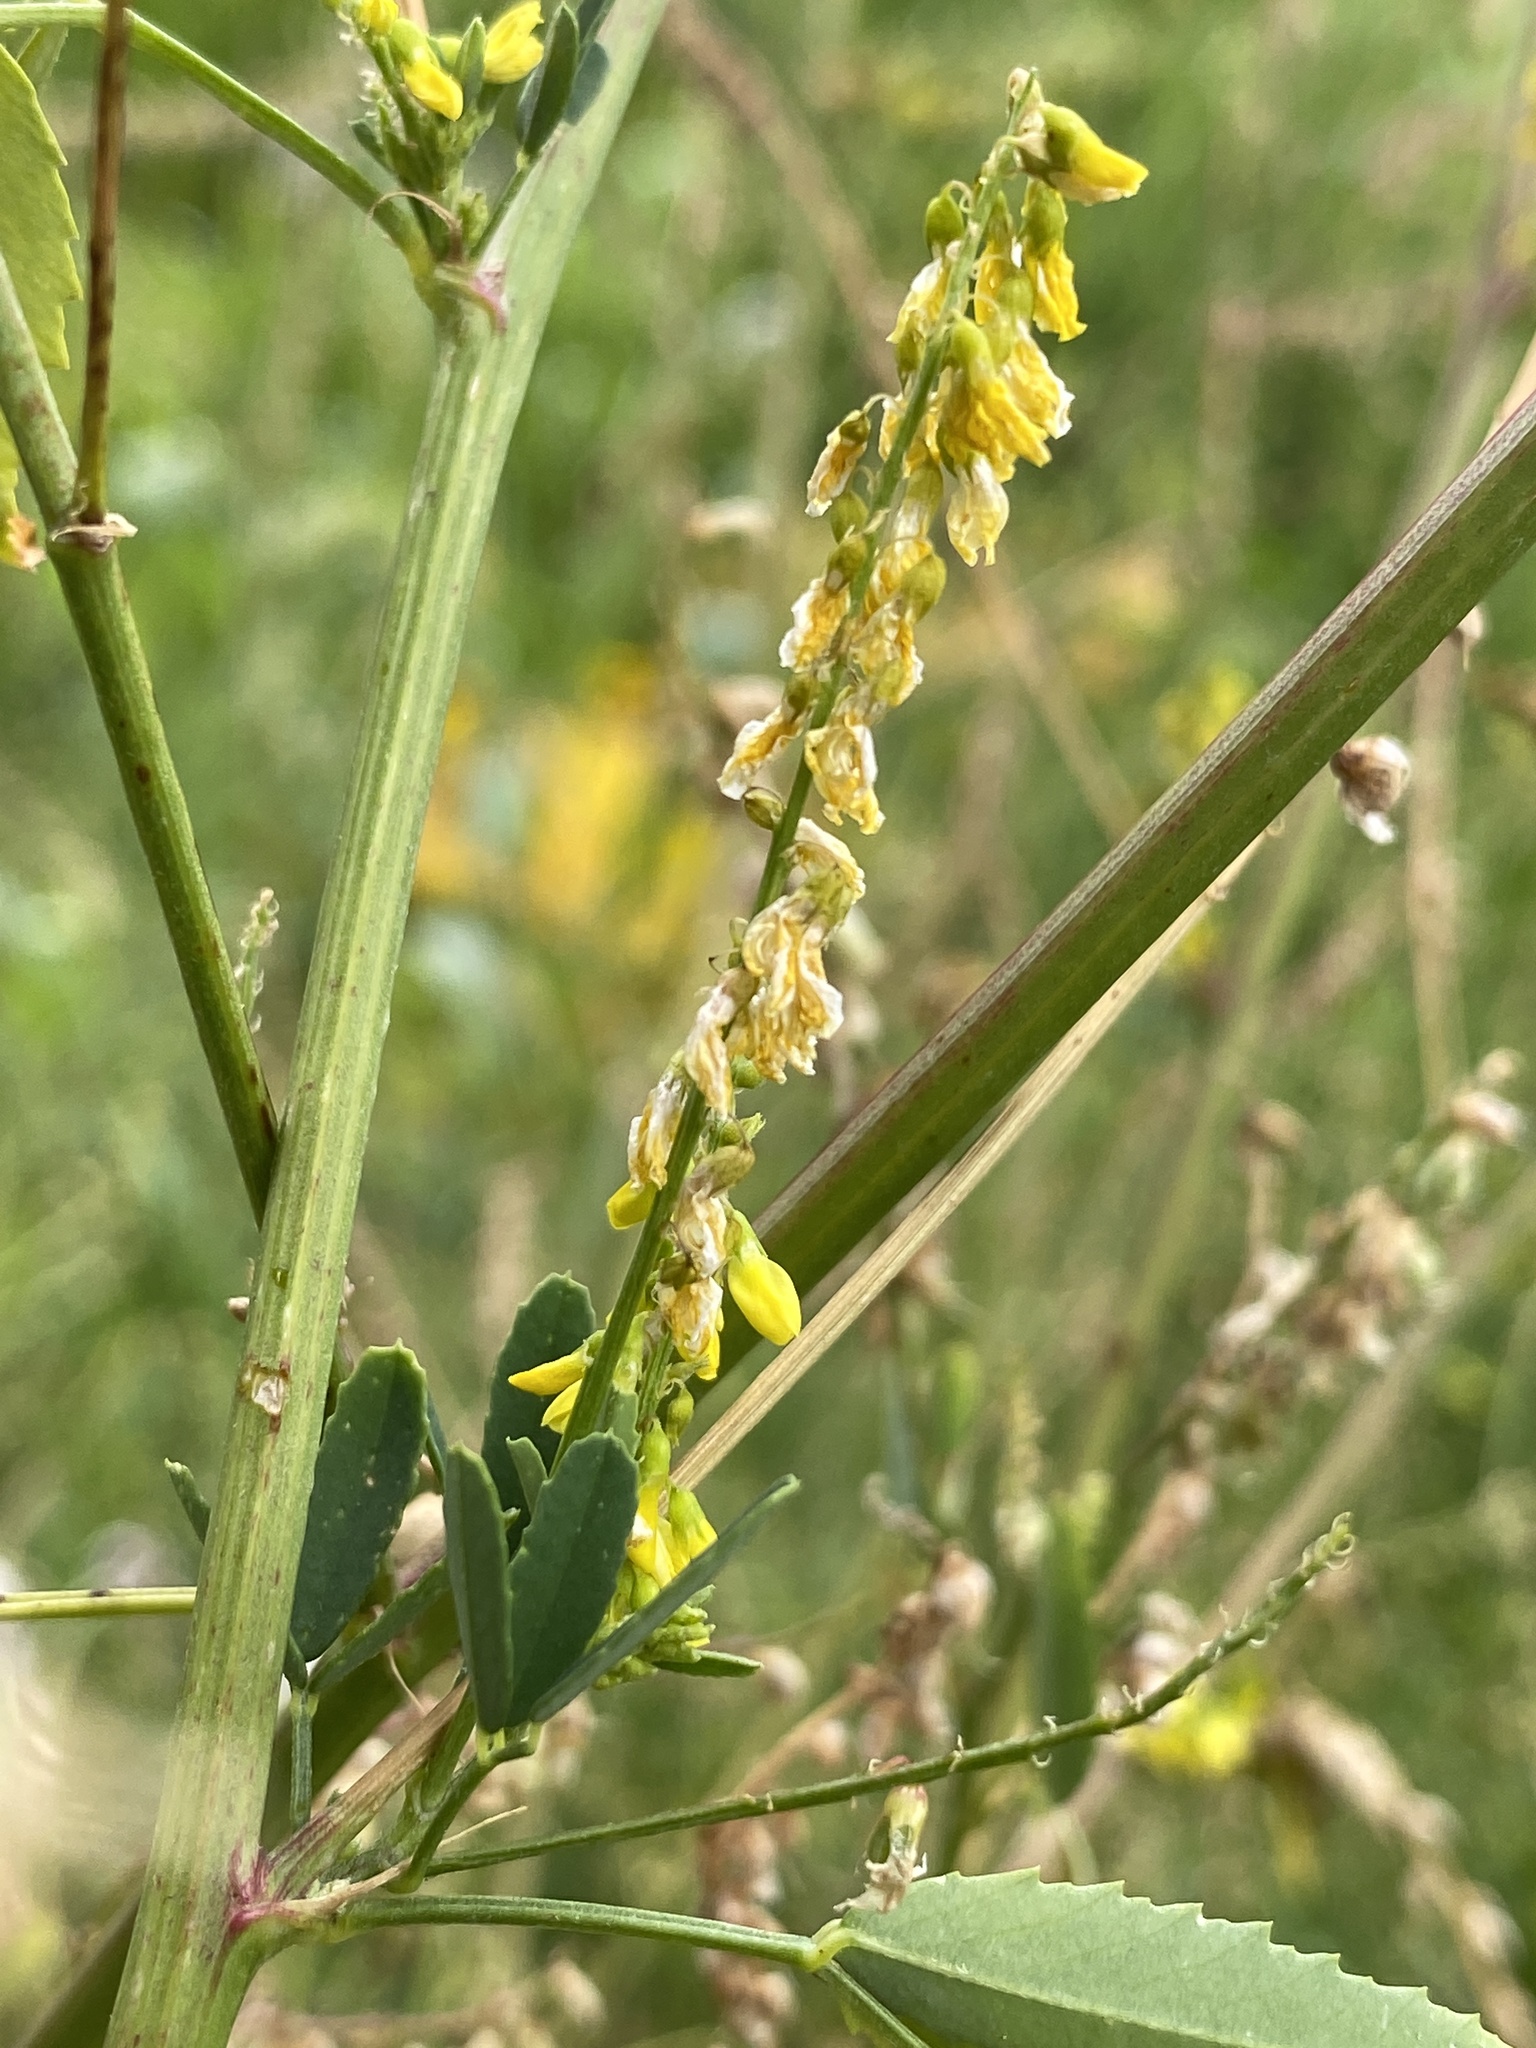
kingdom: Plantae
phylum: Tracheophyta
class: Magnoliopsida
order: Fabales
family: Fabaceae
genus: Melilotus
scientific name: Melilotus officinalis
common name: Sweetclover
